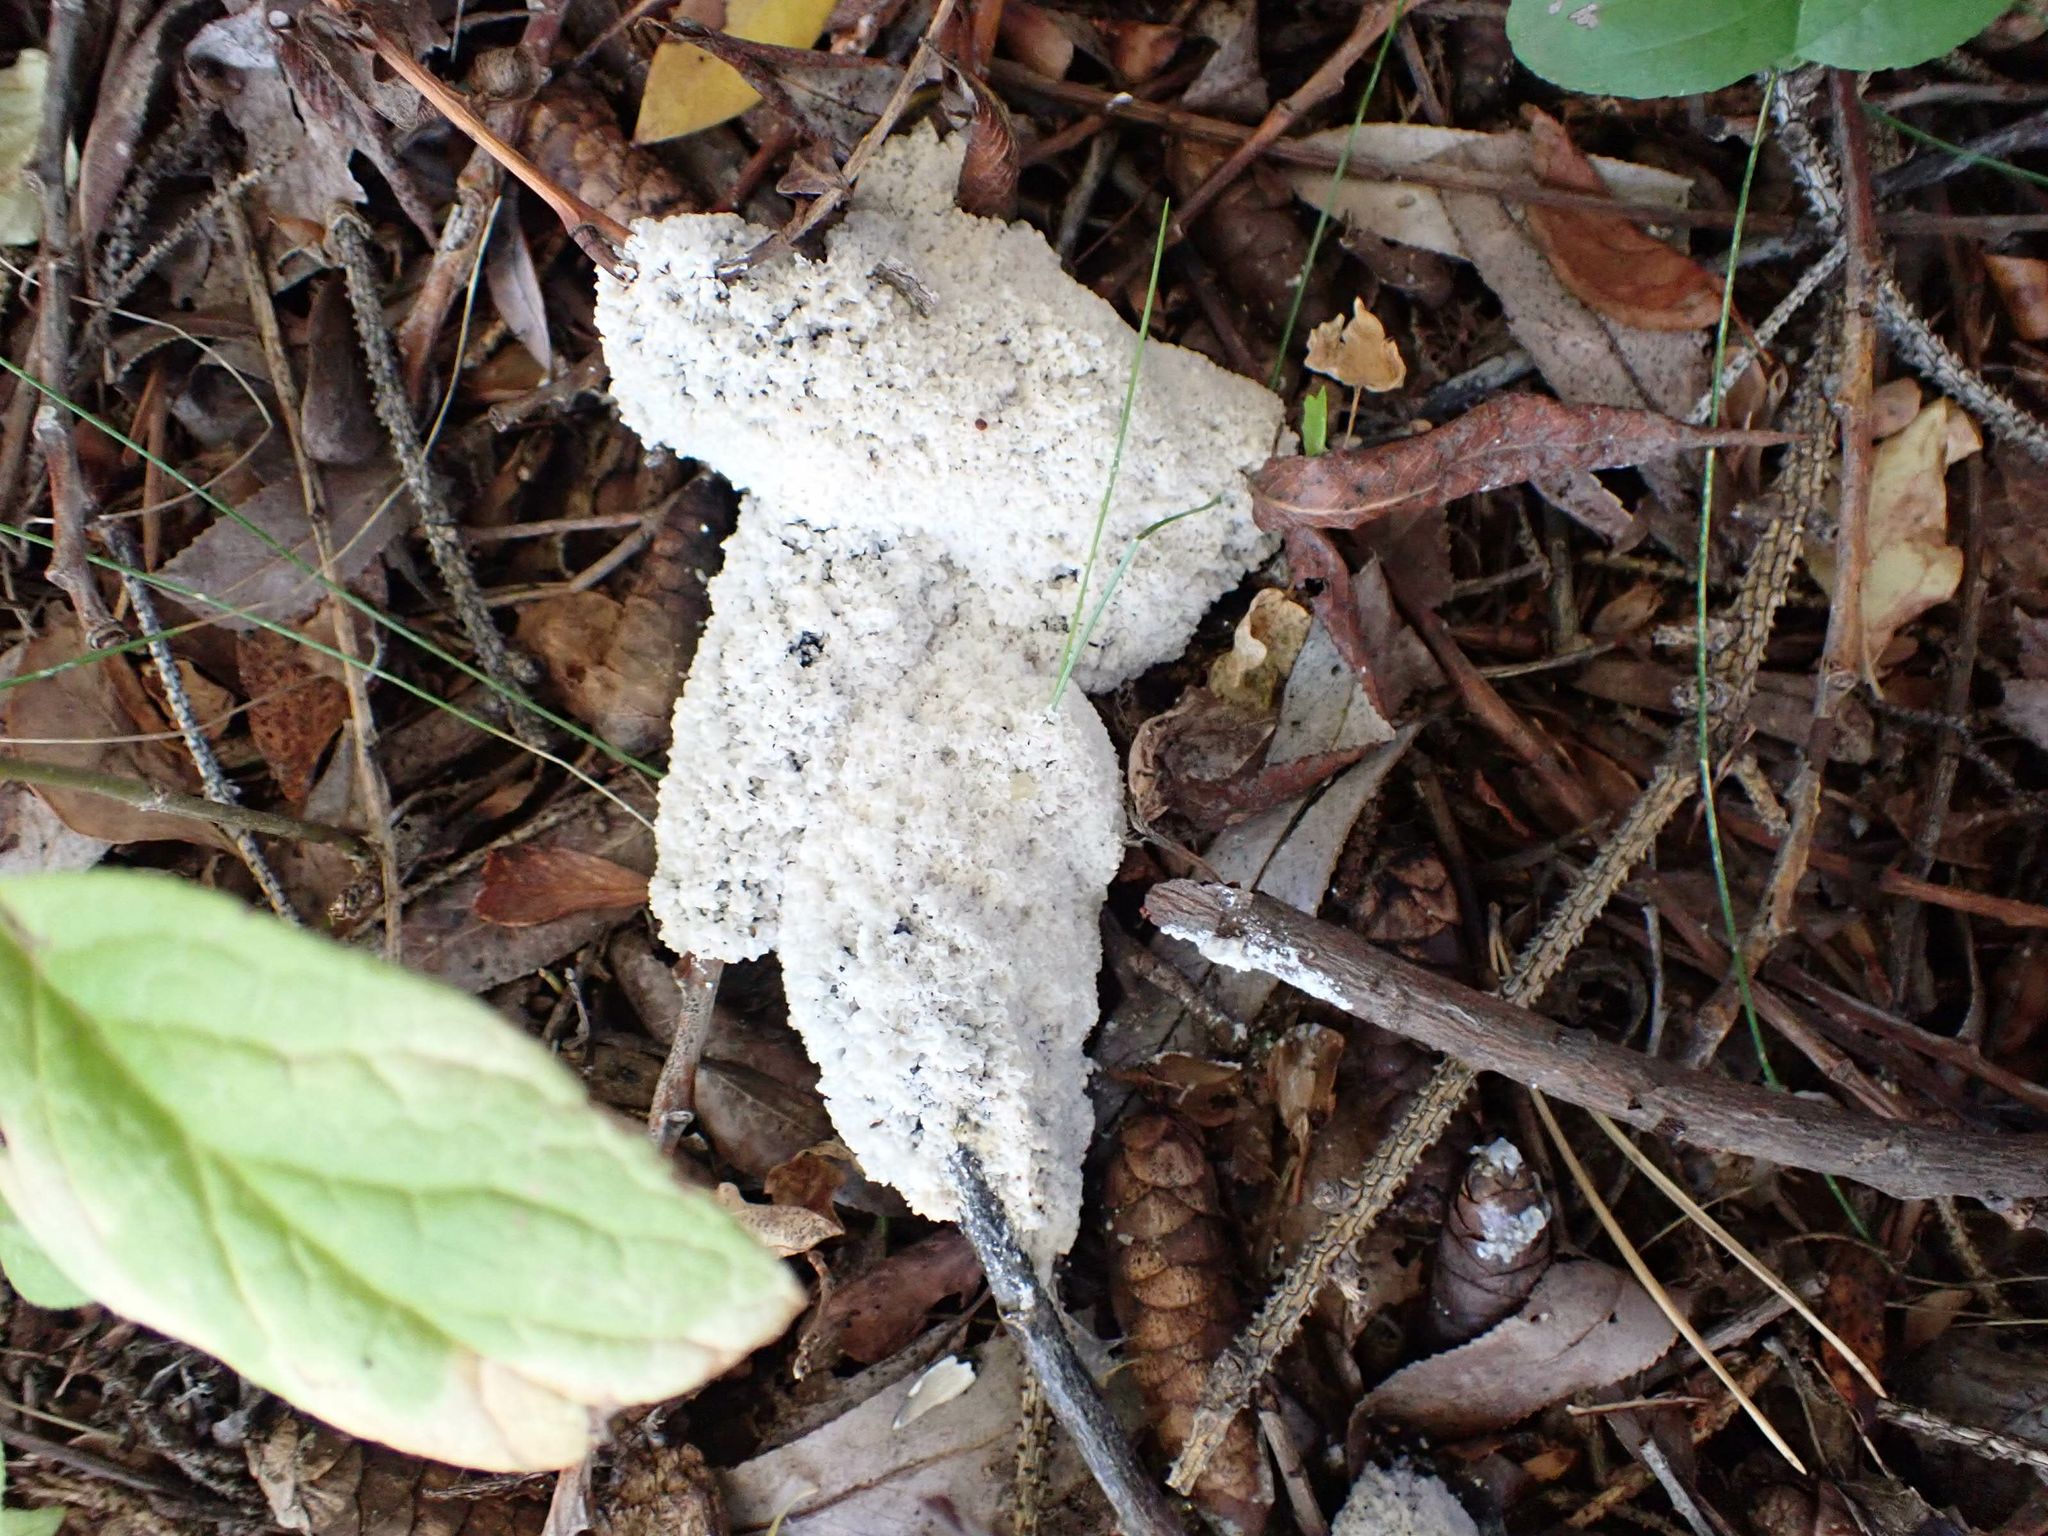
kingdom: Protozoa
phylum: Mycetozoa
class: Myxomycetes
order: Physarales
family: Physaraceae
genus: Didymium
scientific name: Didymium
